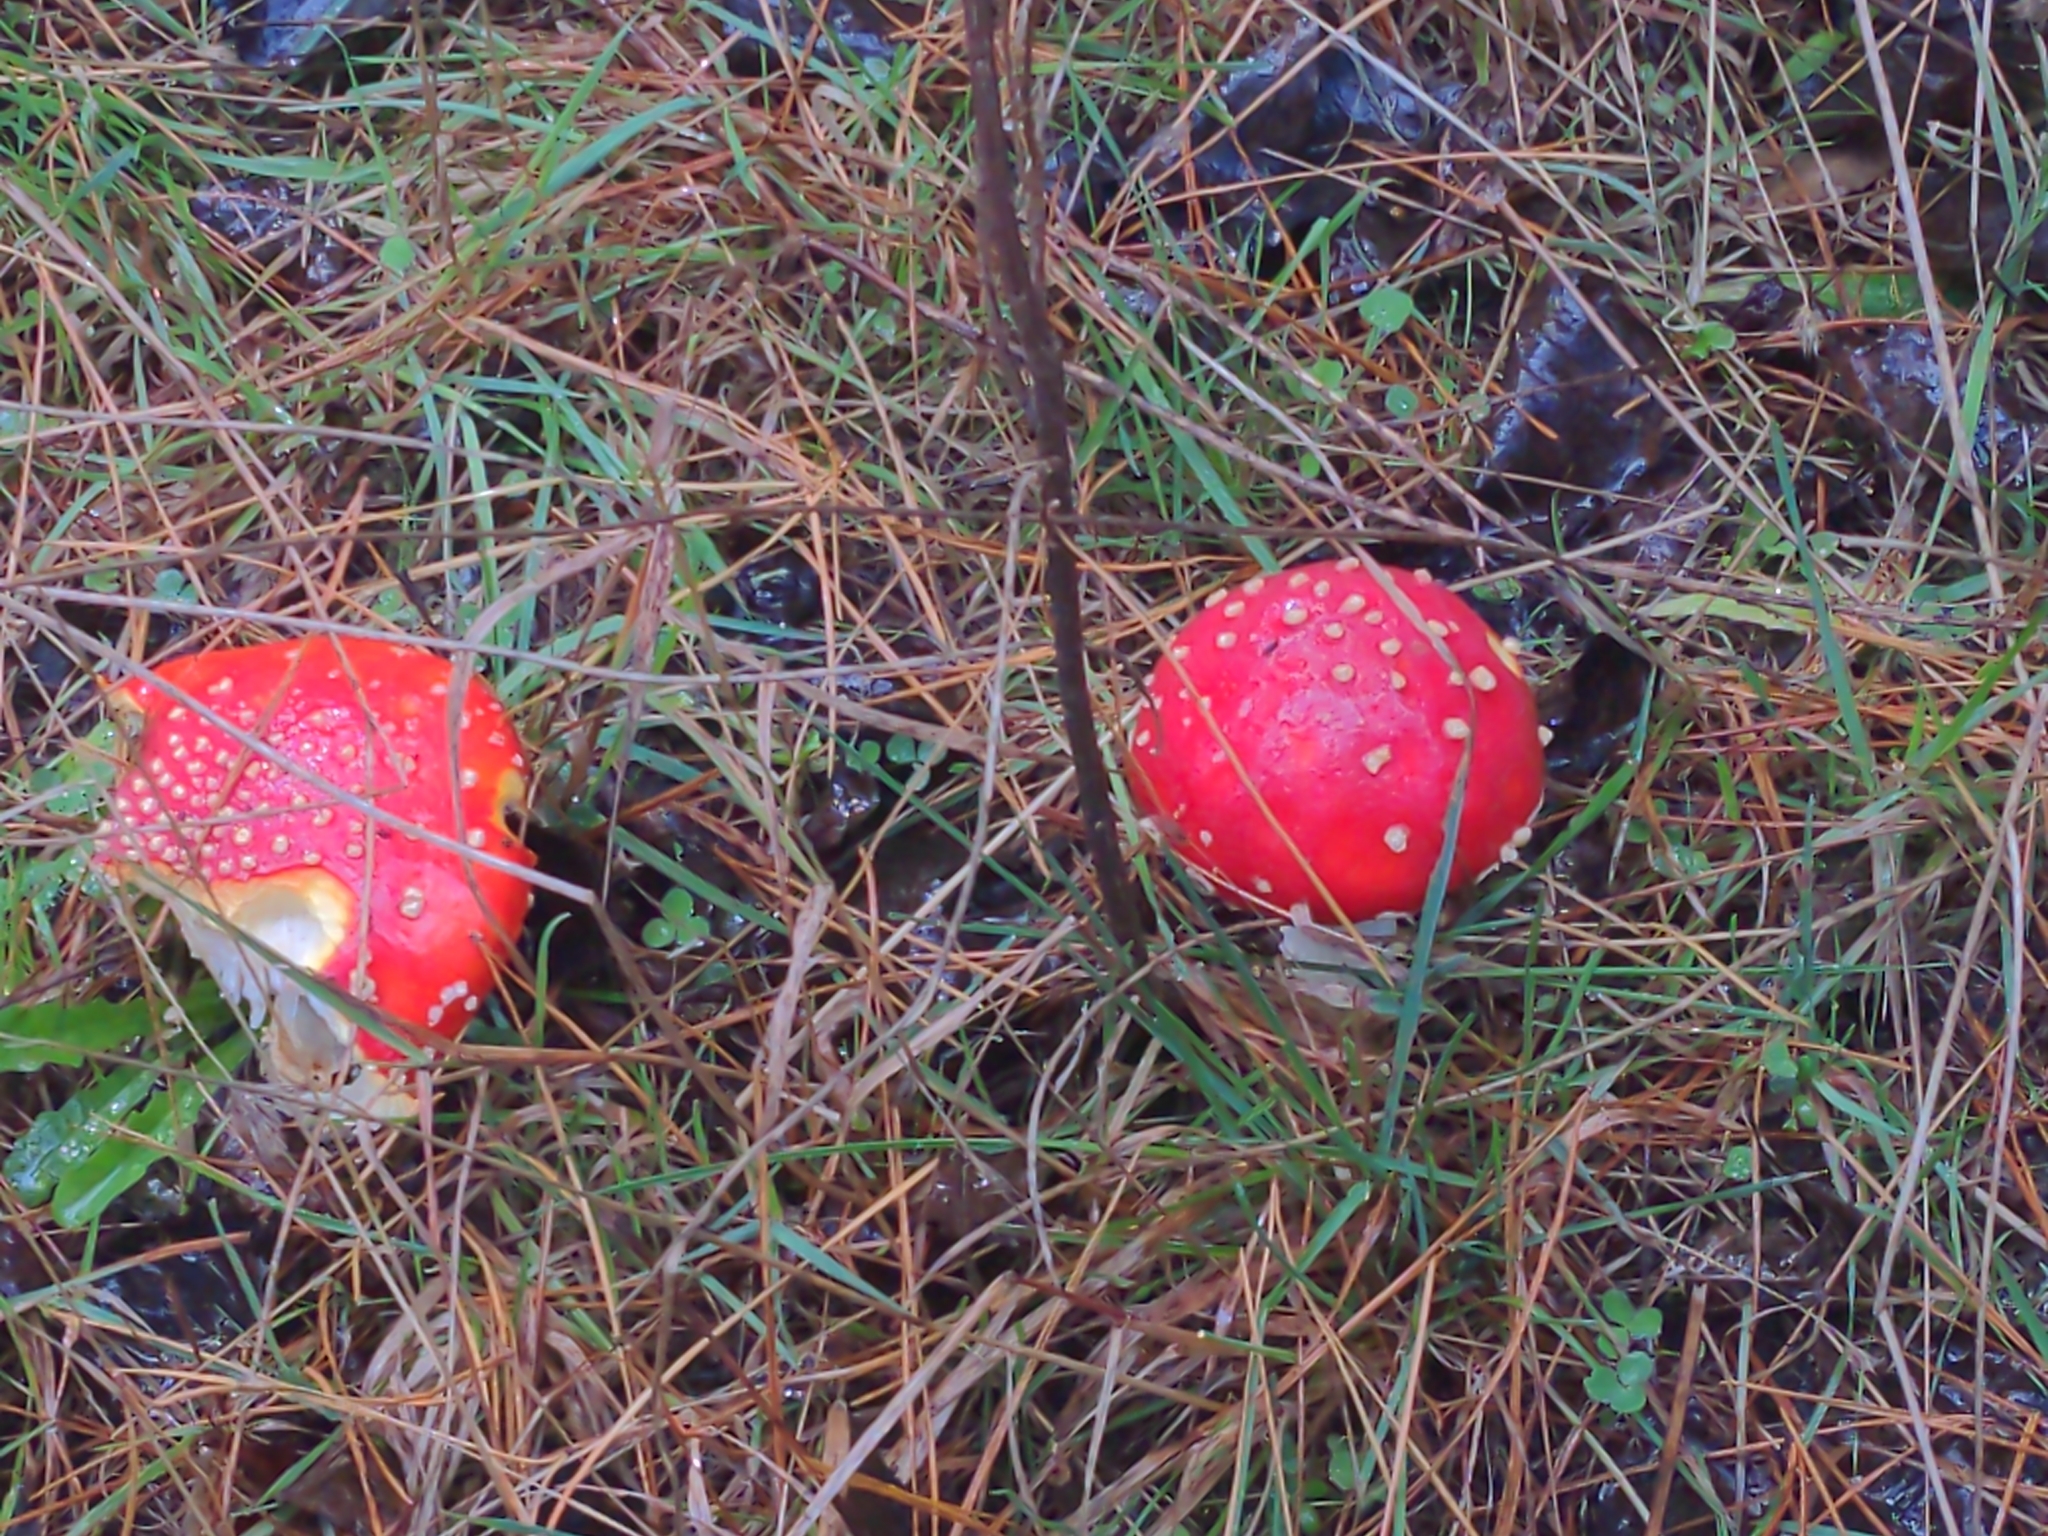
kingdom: Fungi
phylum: Basidiomycota
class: Agaricomycetes
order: Agaricales
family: Amanitaceae
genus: Amanita
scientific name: Amanita muscaria
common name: Fly agaric
